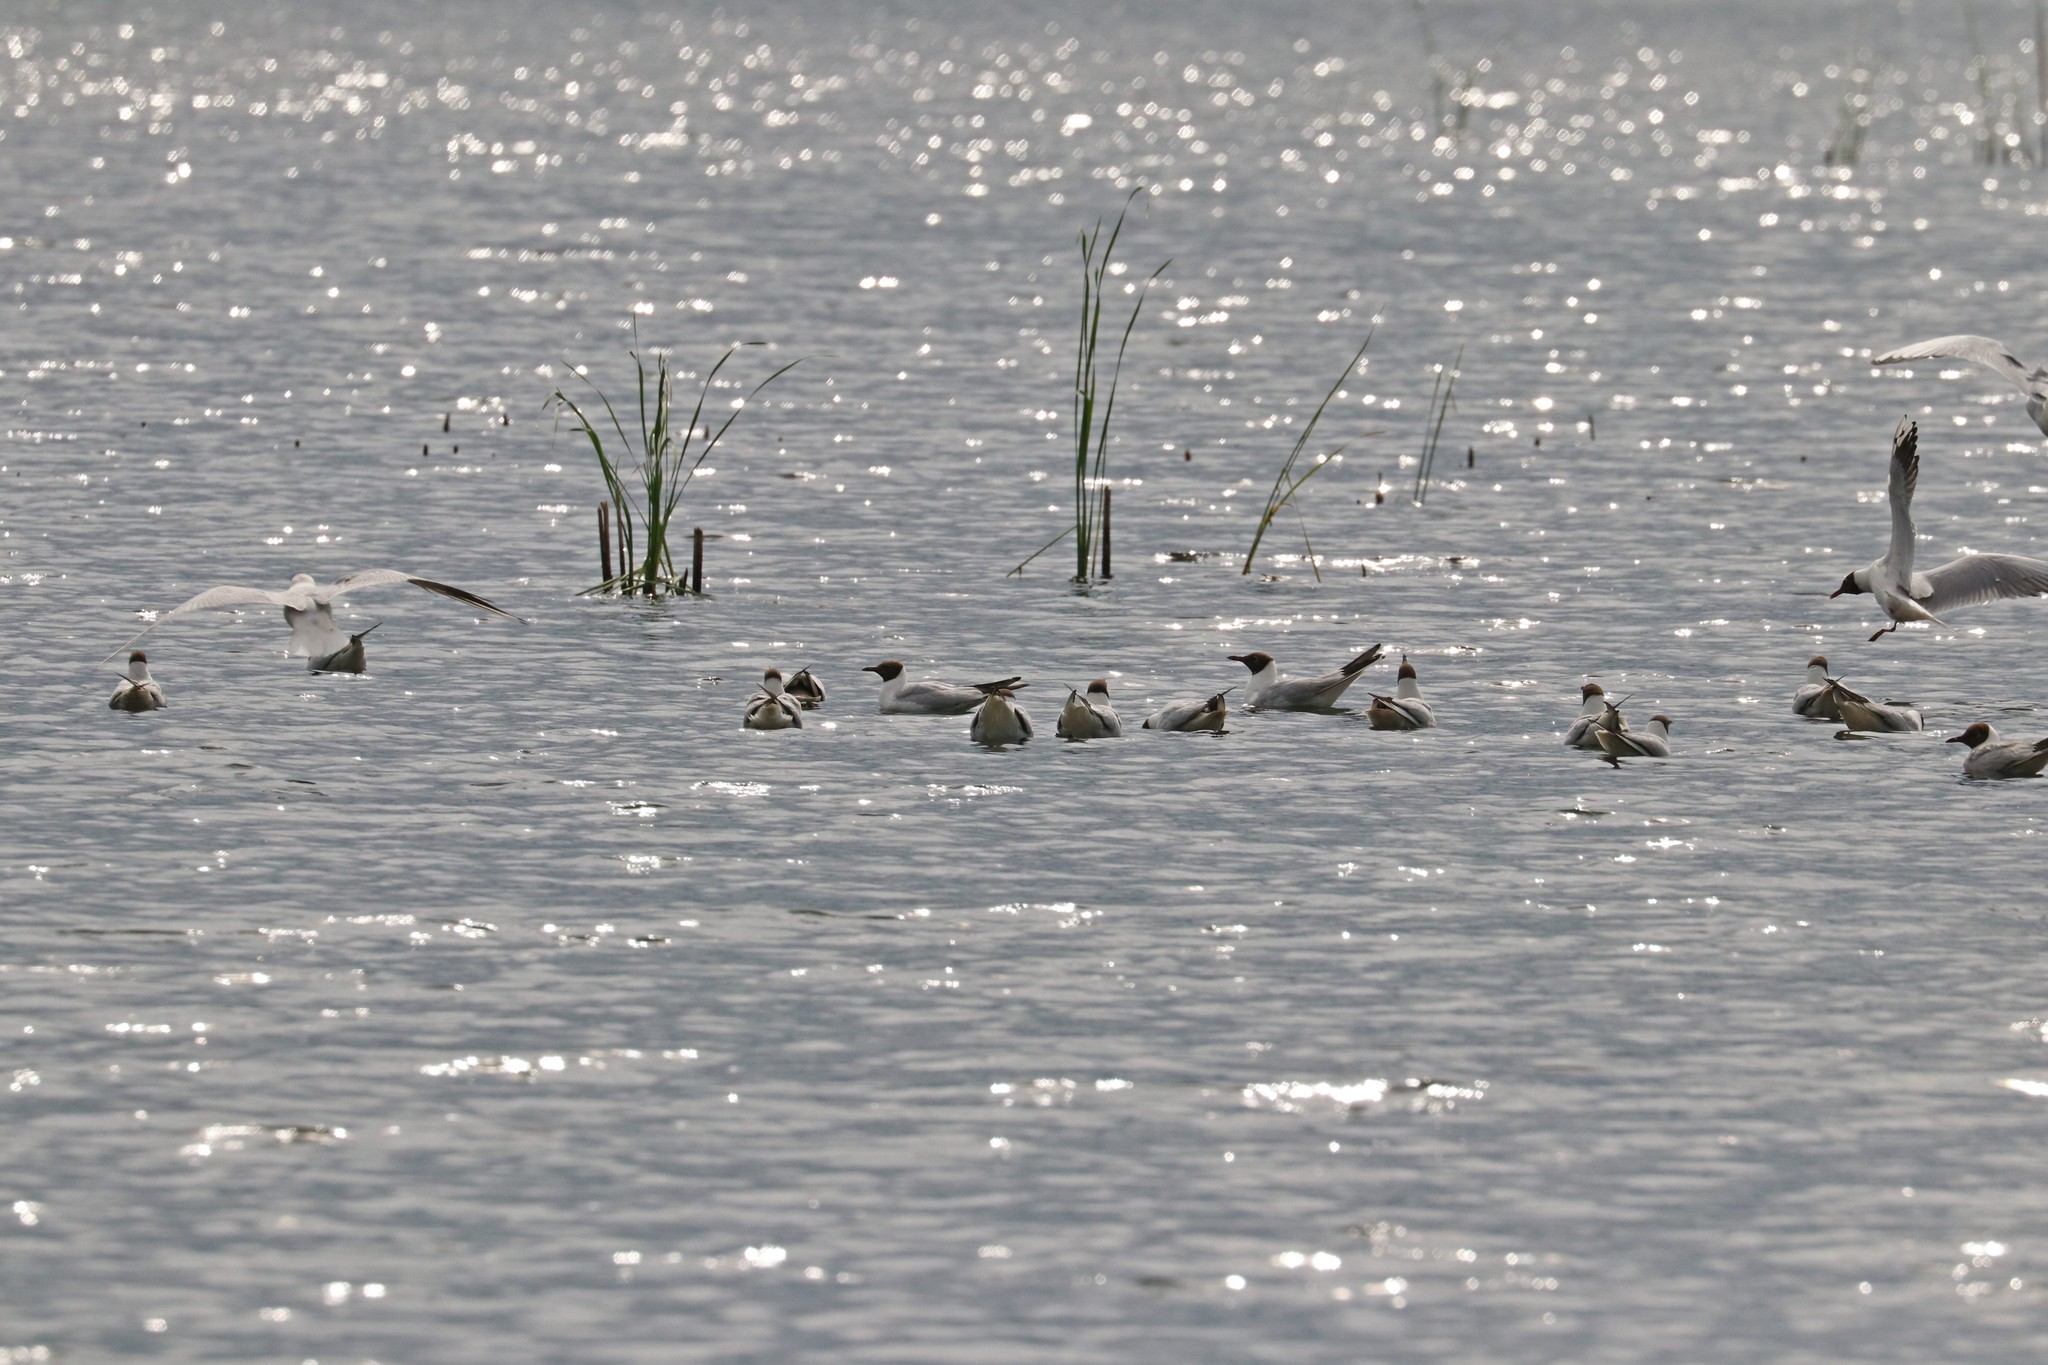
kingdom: Animalia
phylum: Chordata
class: Aves
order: Charadriiformes
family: Laridae
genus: Chroicocephalus
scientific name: Chroicocephalus ridibundus
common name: Black-headed gull
